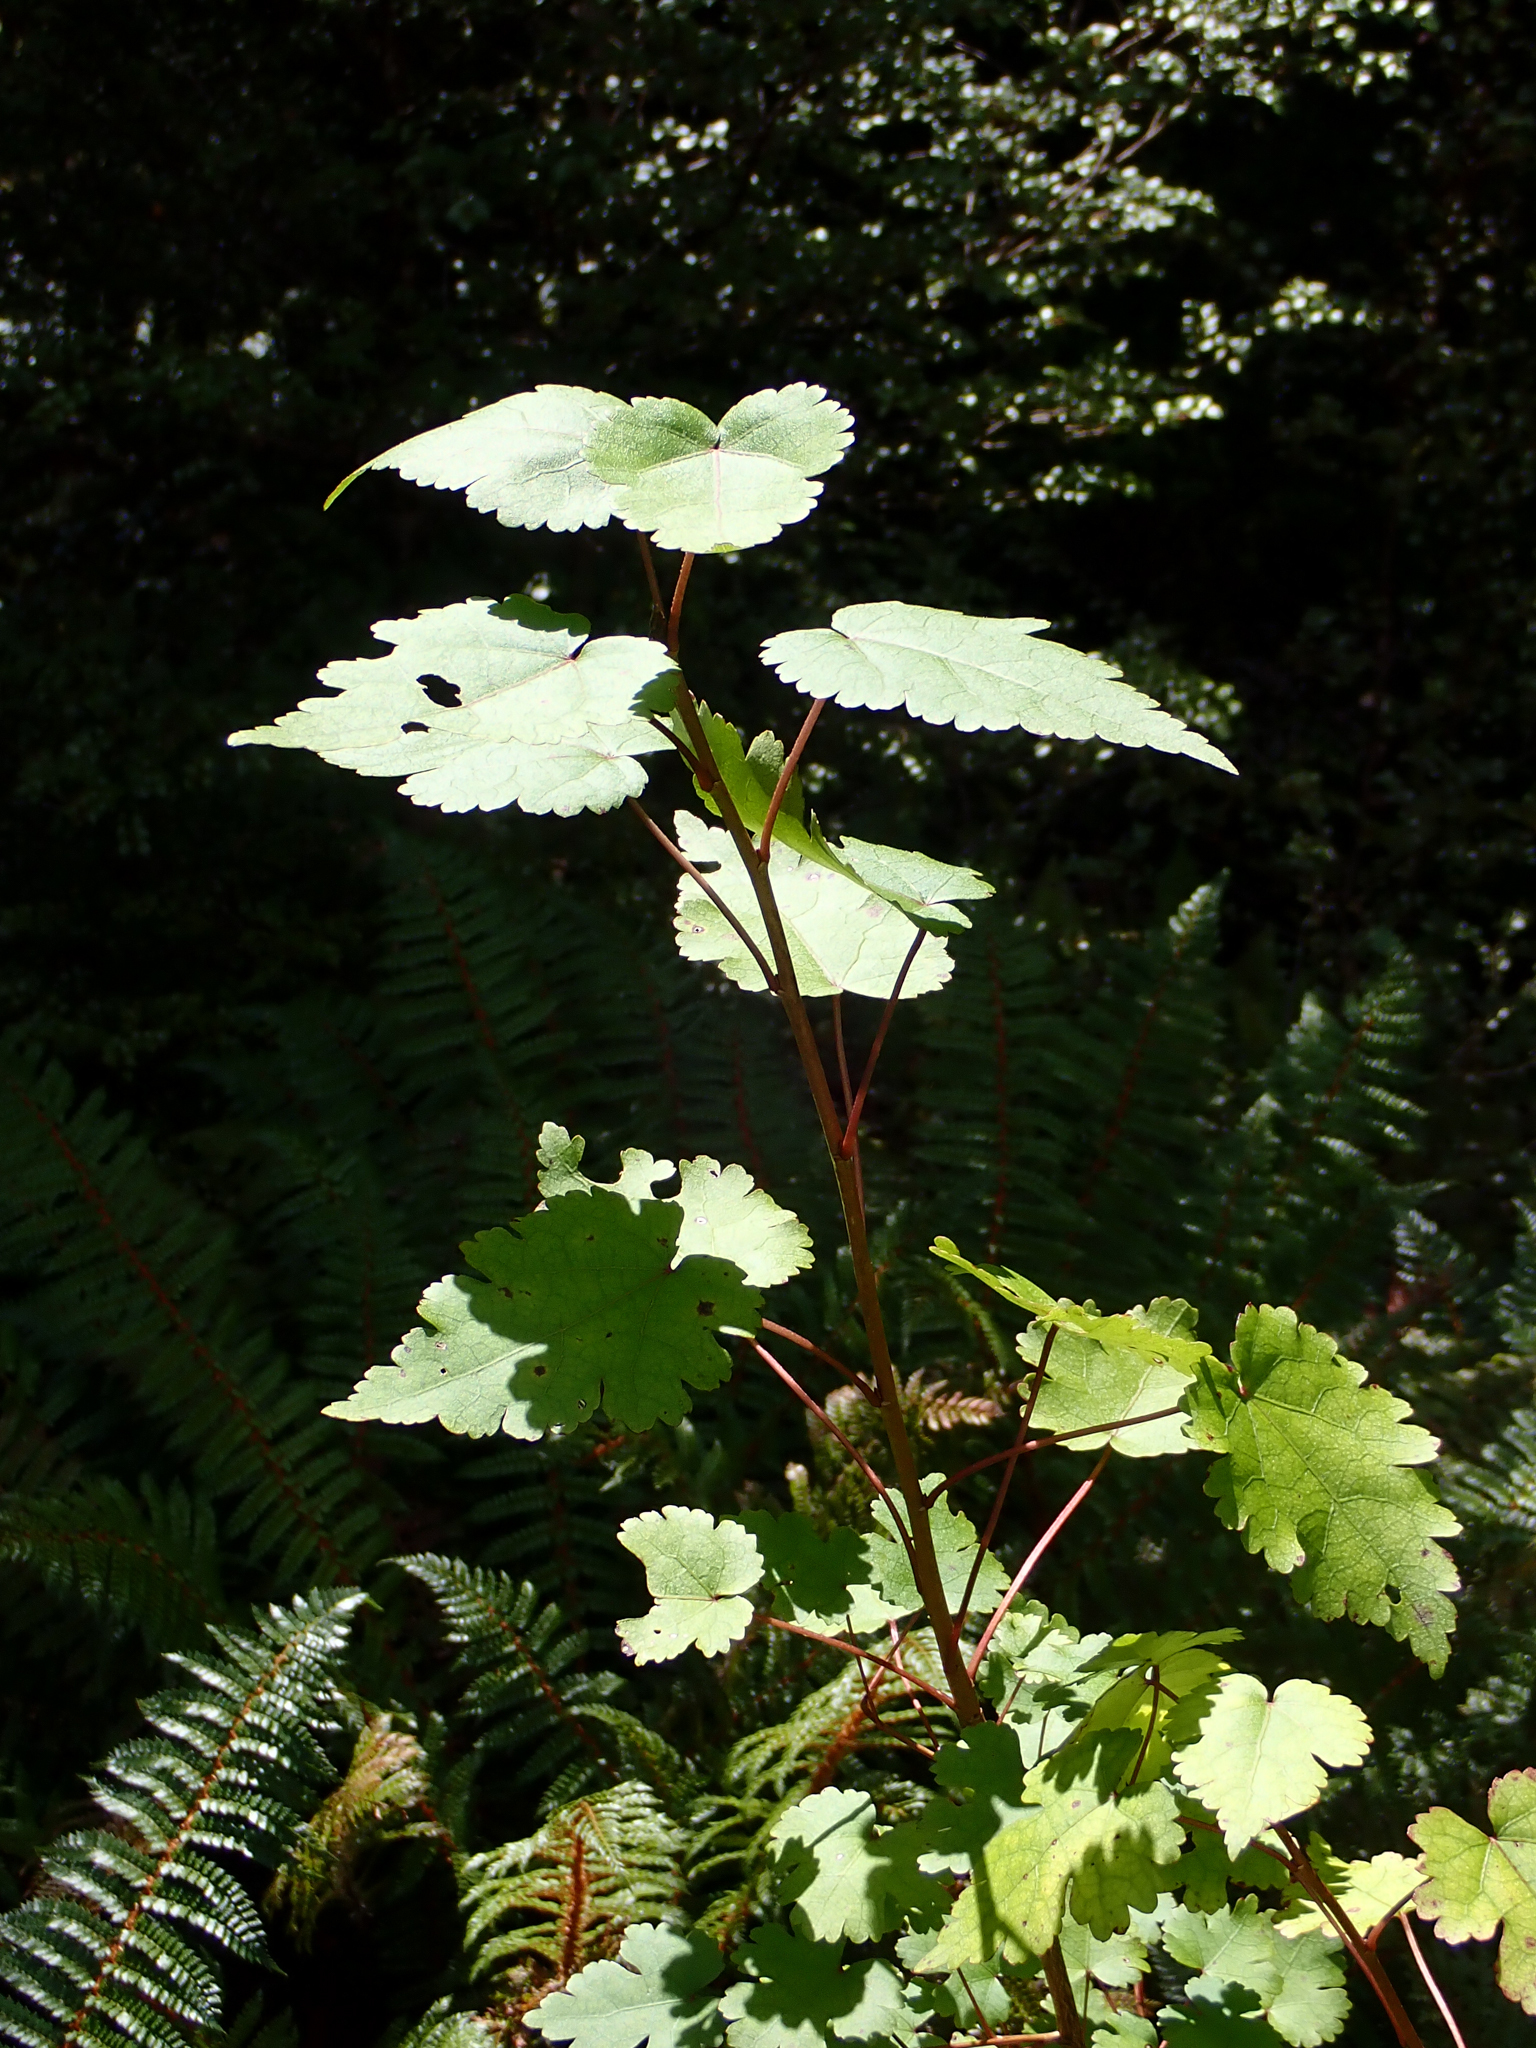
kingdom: Plantae
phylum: Tracheophyta
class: Magnoliopsida
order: Malvales
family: Malvaceae
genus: Hoheria
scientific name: Hoheria glabrata
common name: Mountain-ribbon
